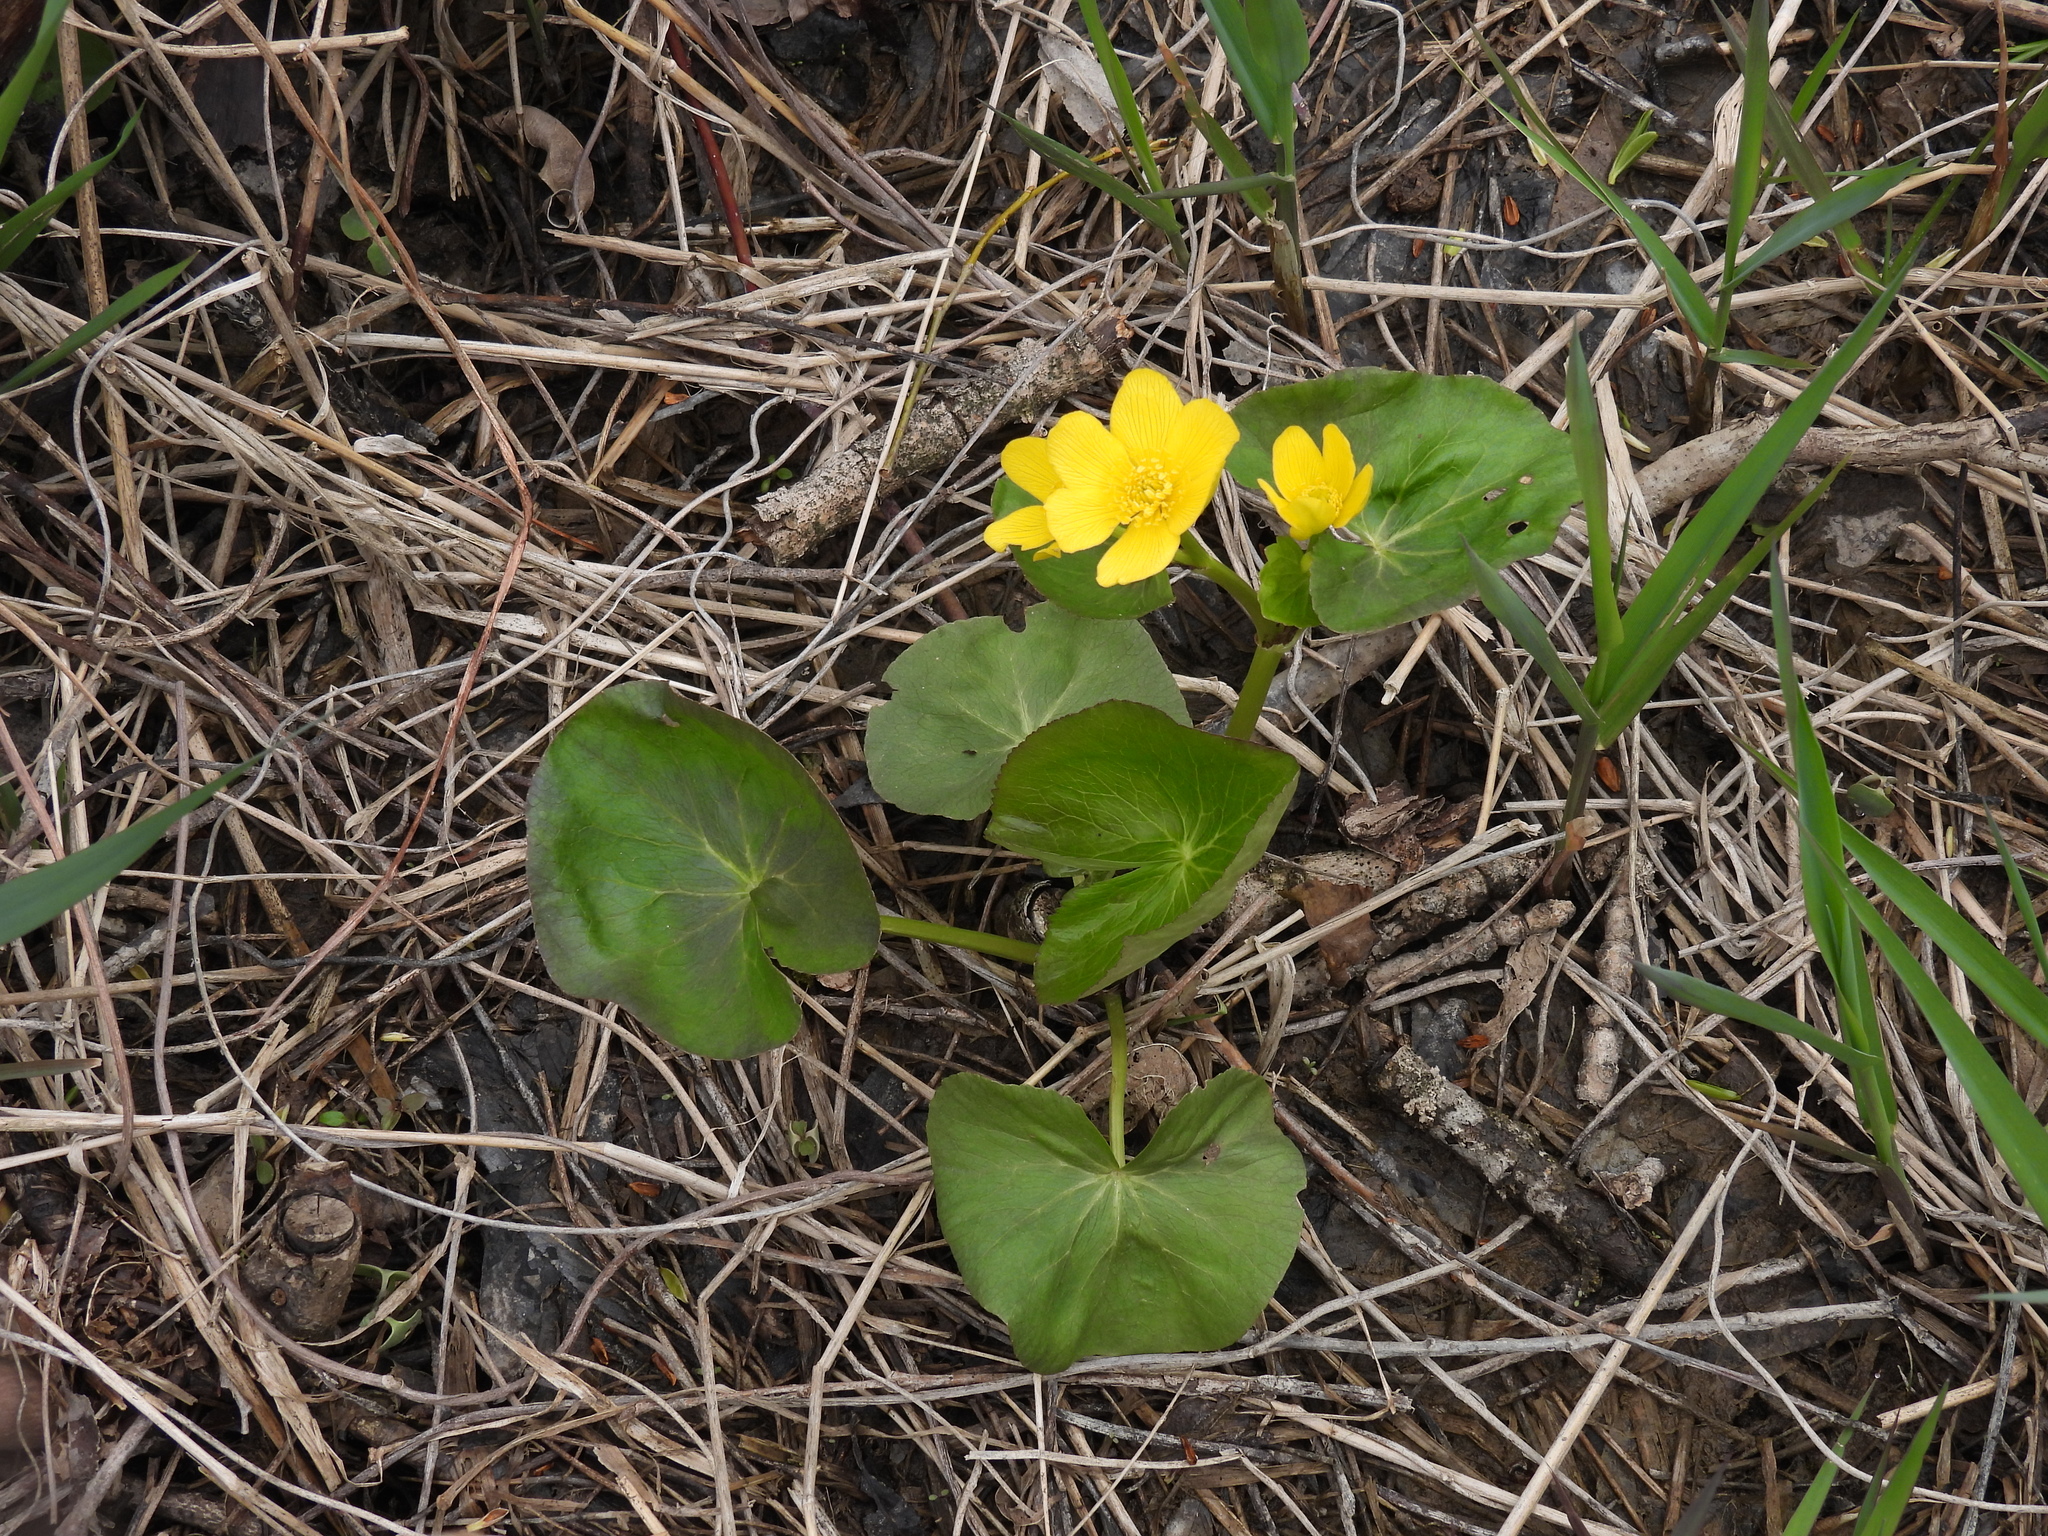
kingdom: Plantae
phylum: Tracheophyta
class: Magnoliopsida
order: Ranunculales
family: Ranunculaceae
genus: Caltha
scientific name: Caltha palustris
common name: Marsh marigold
